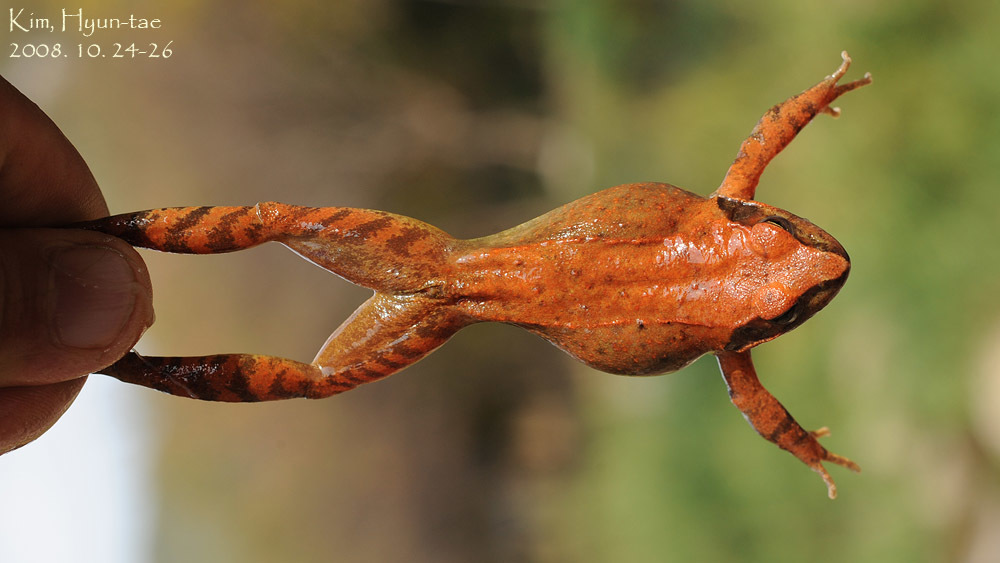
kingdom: Animalia
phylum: Chordata
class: Amphibia
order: Anura
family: Ranidae
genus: Rana
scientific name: Rana huanrenensis
